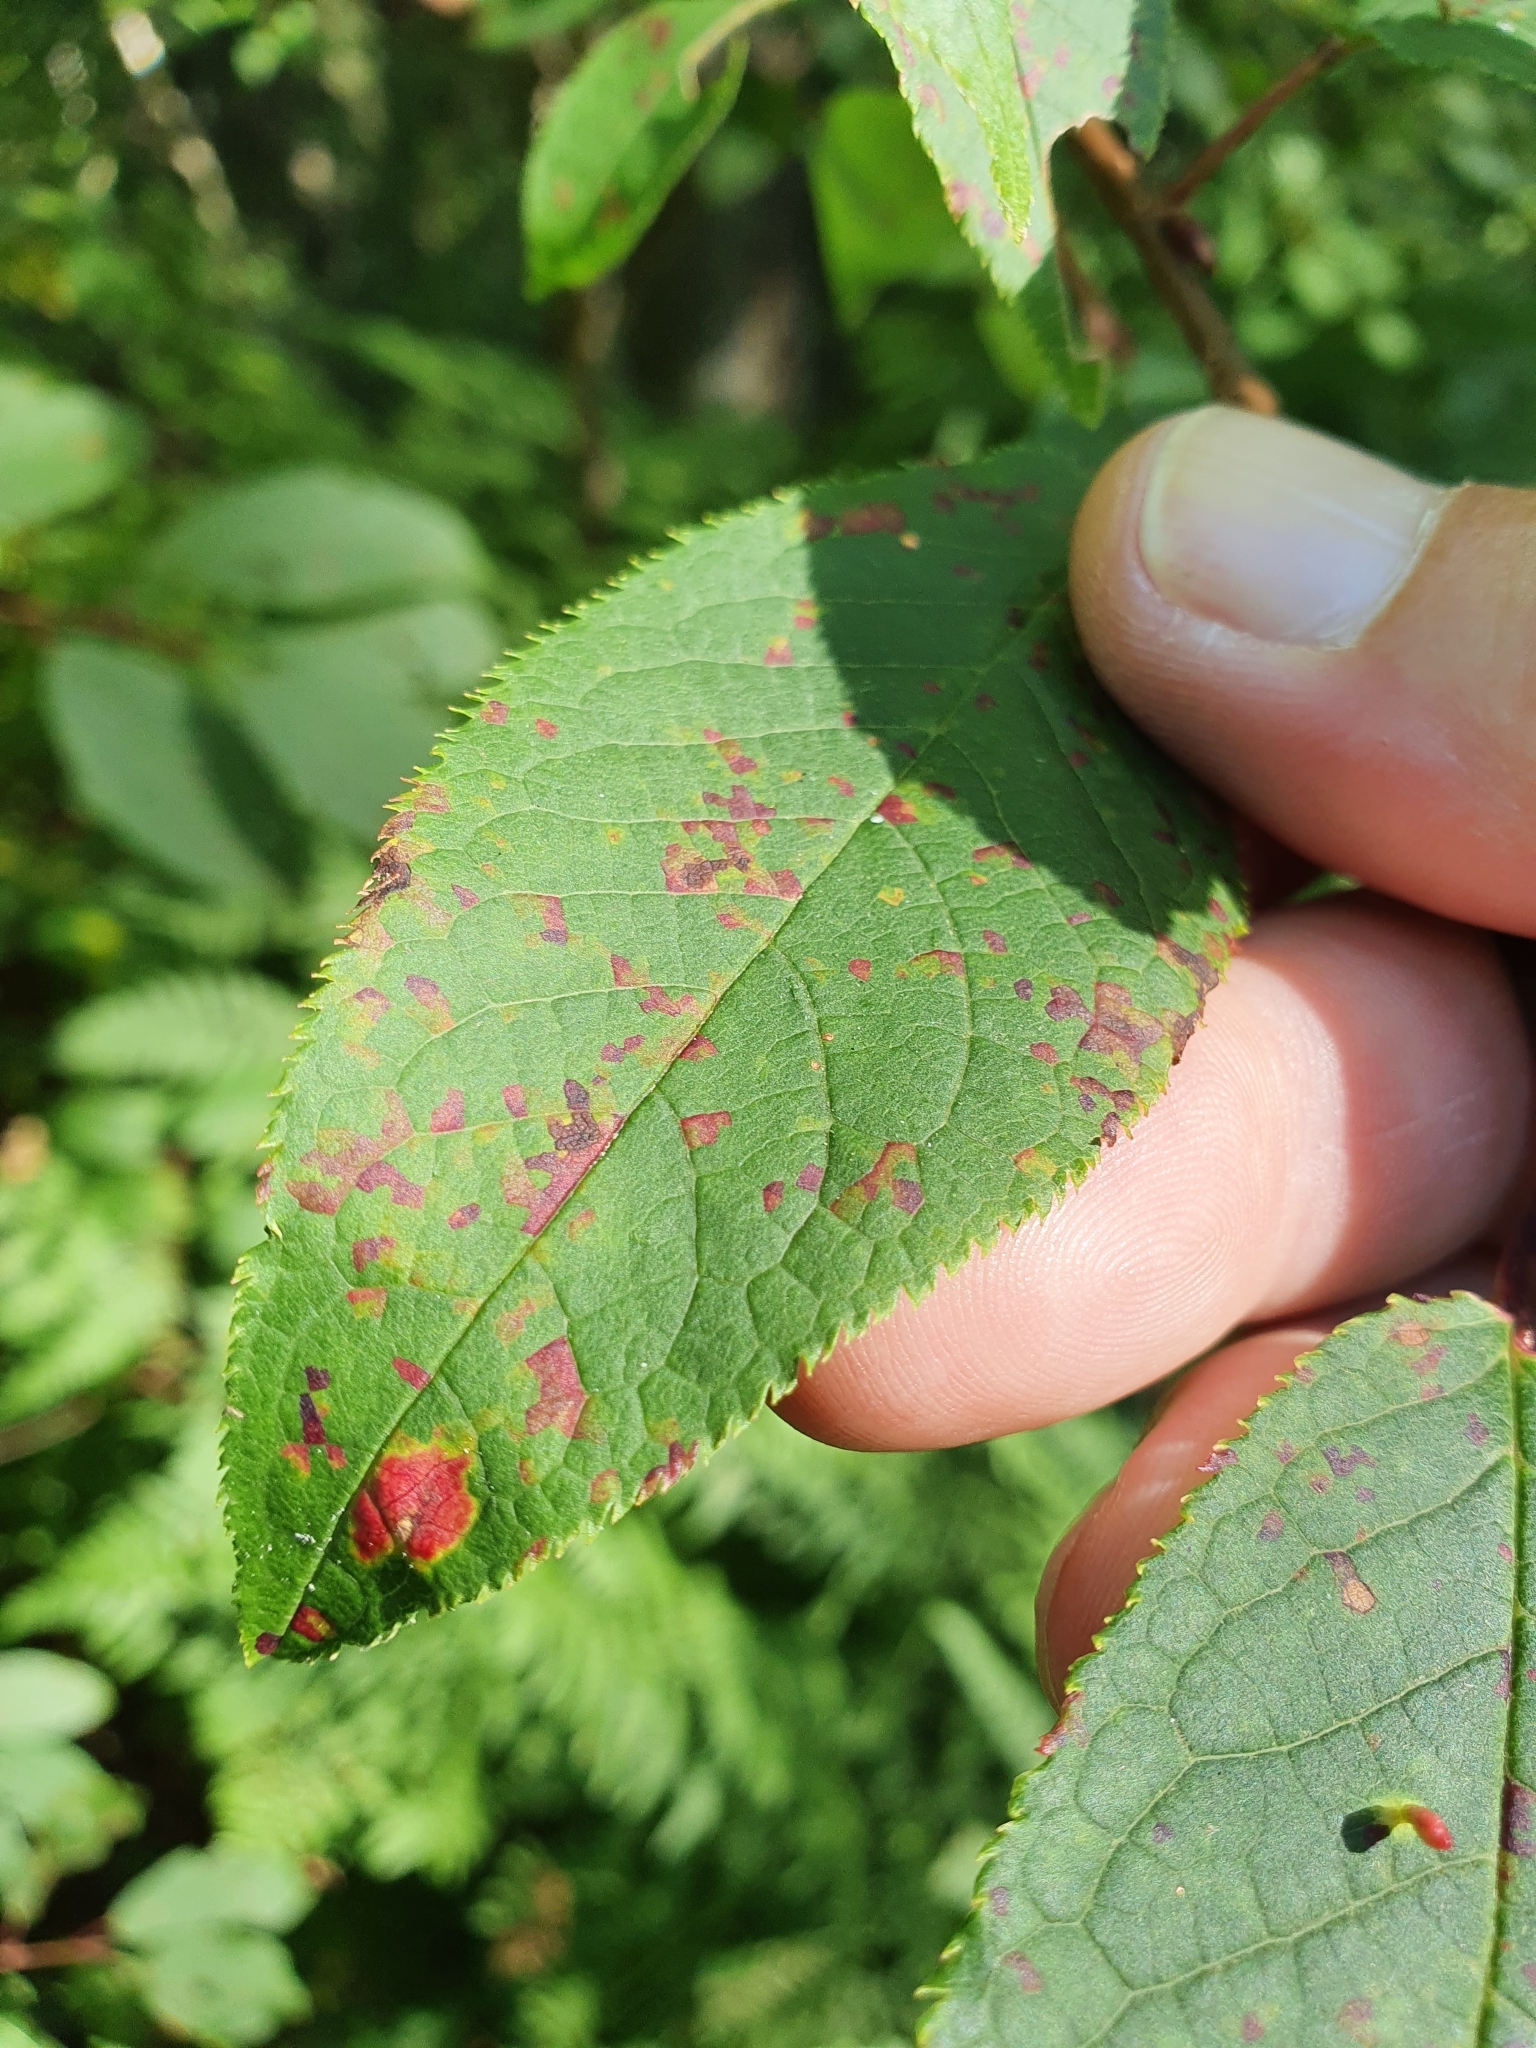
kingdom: Fungi
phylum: Basidiomycota
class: Pucciniomycetes
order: Pucciniales
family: Pucciniastraceae
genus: Thekopsora
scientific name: Thekopsora areolata
